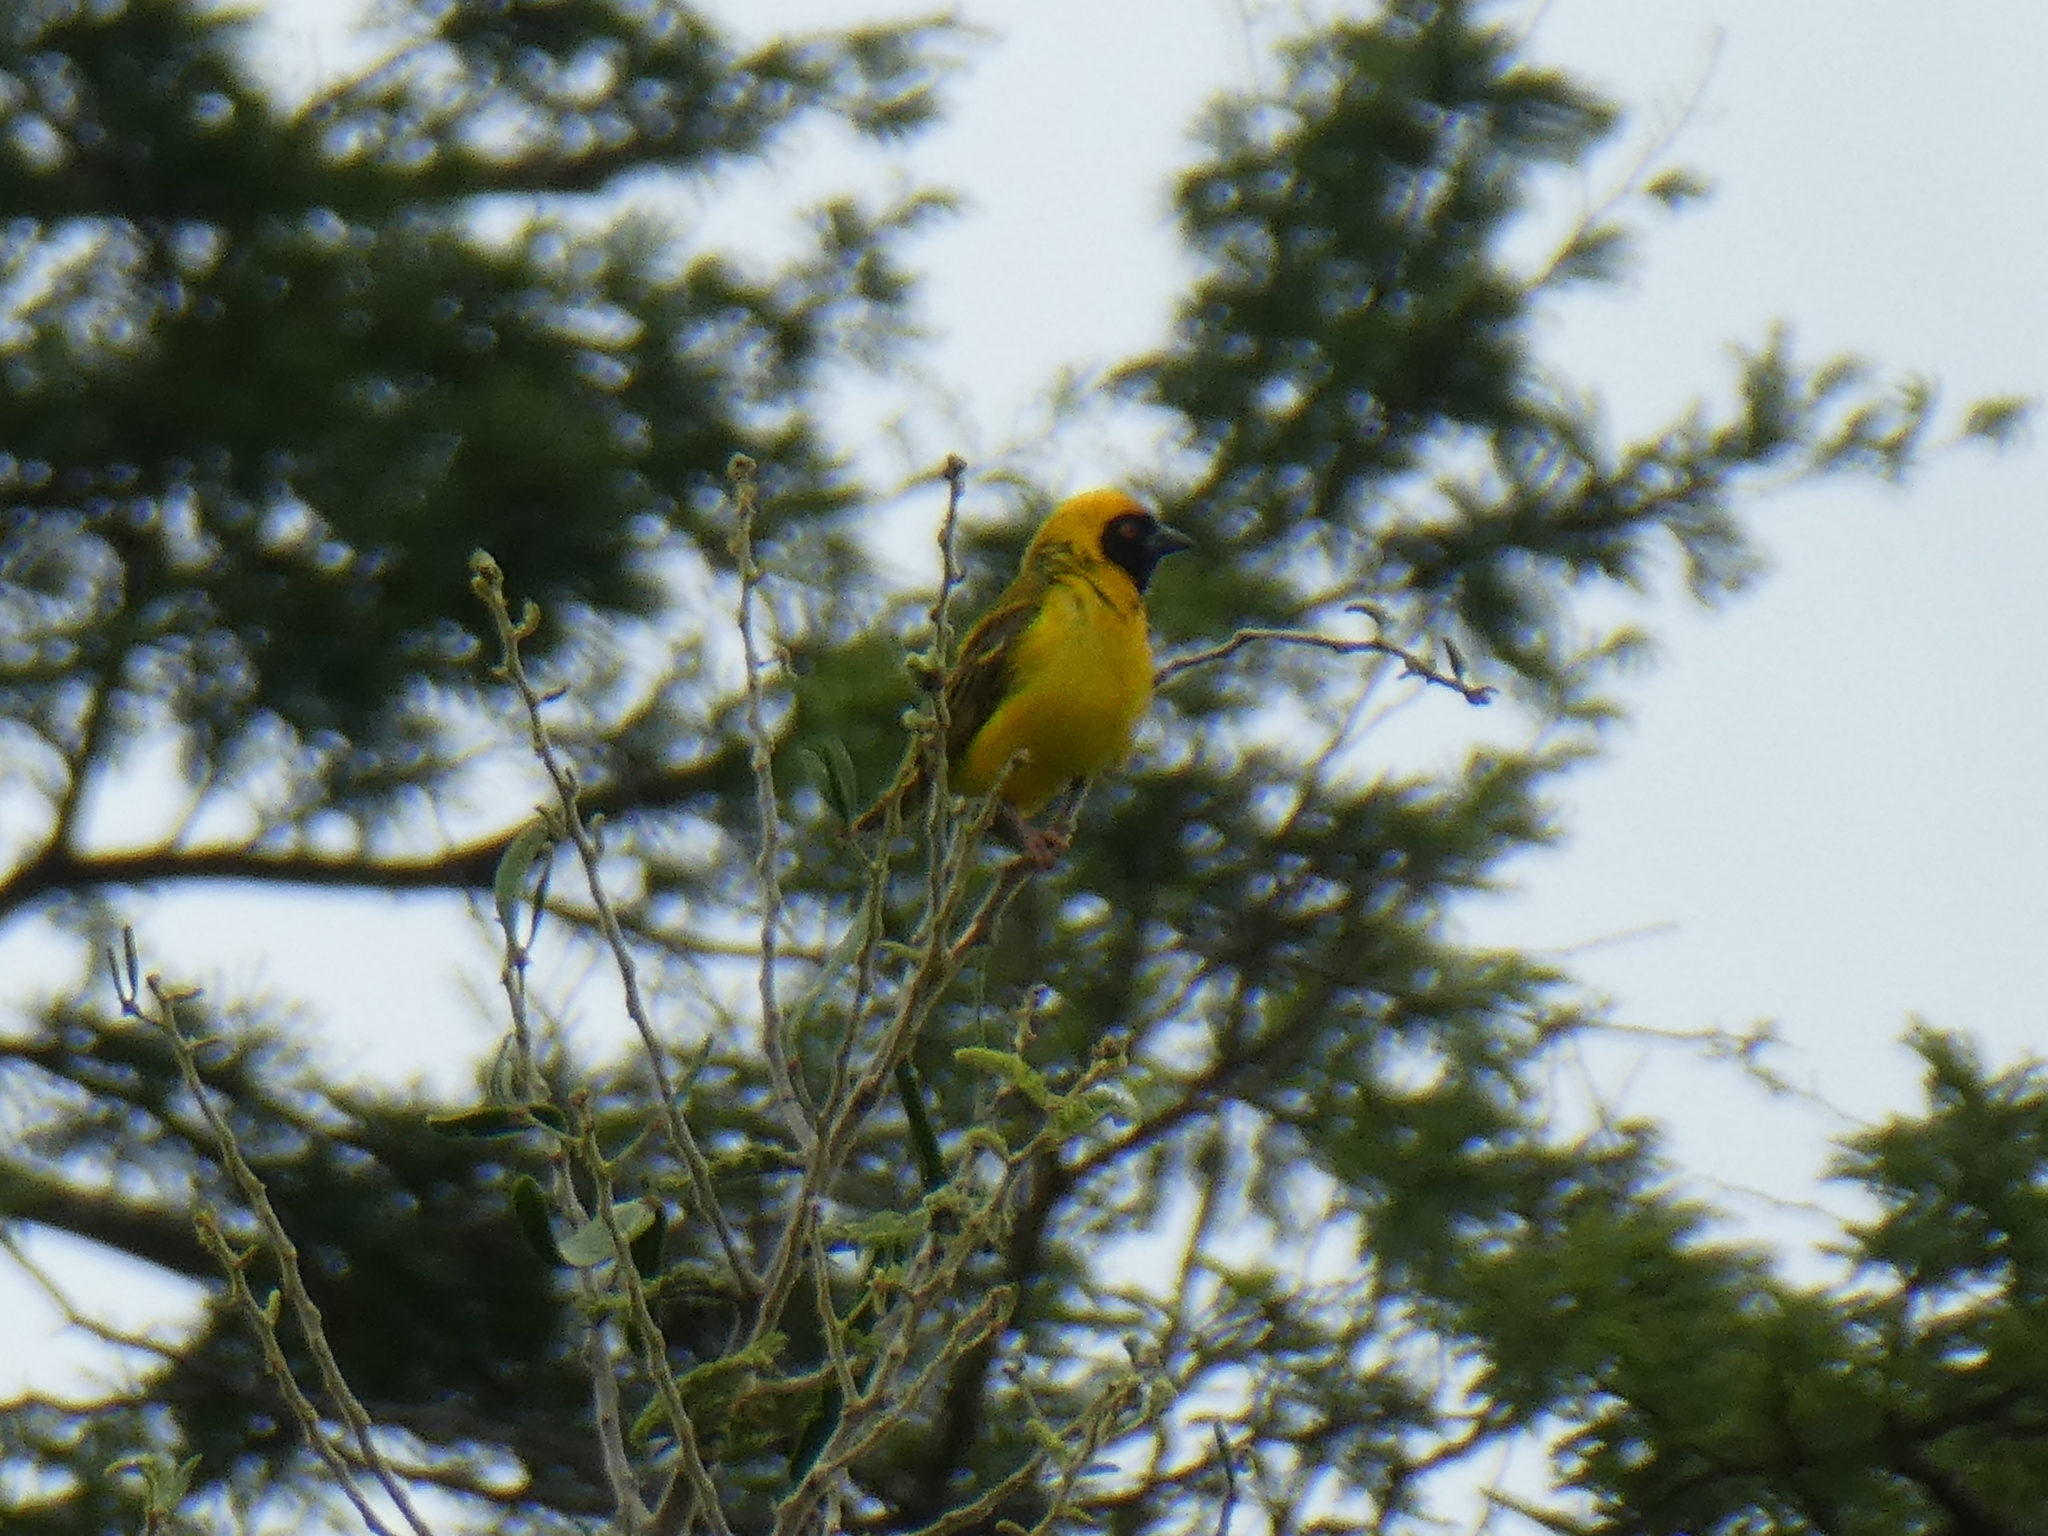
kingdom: Animalia
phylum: Chordata
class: Aves
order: Passeriformes
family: Ploceidae
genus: Ploceus
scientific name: Ploceus velatus
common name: Southern masked weaver
